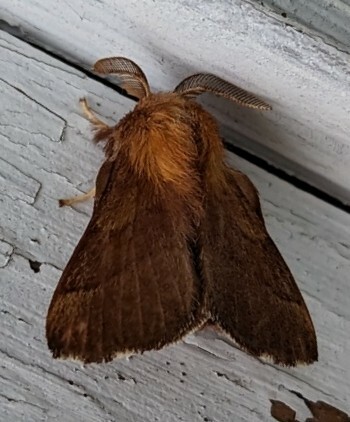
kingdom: Animalia
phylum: Arthropoda
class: Insecta
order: Lepidoptera
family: Lasiocampidae
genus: Malacosoma
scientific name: Malacosoma disstria
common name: Forest tent caterpillar
